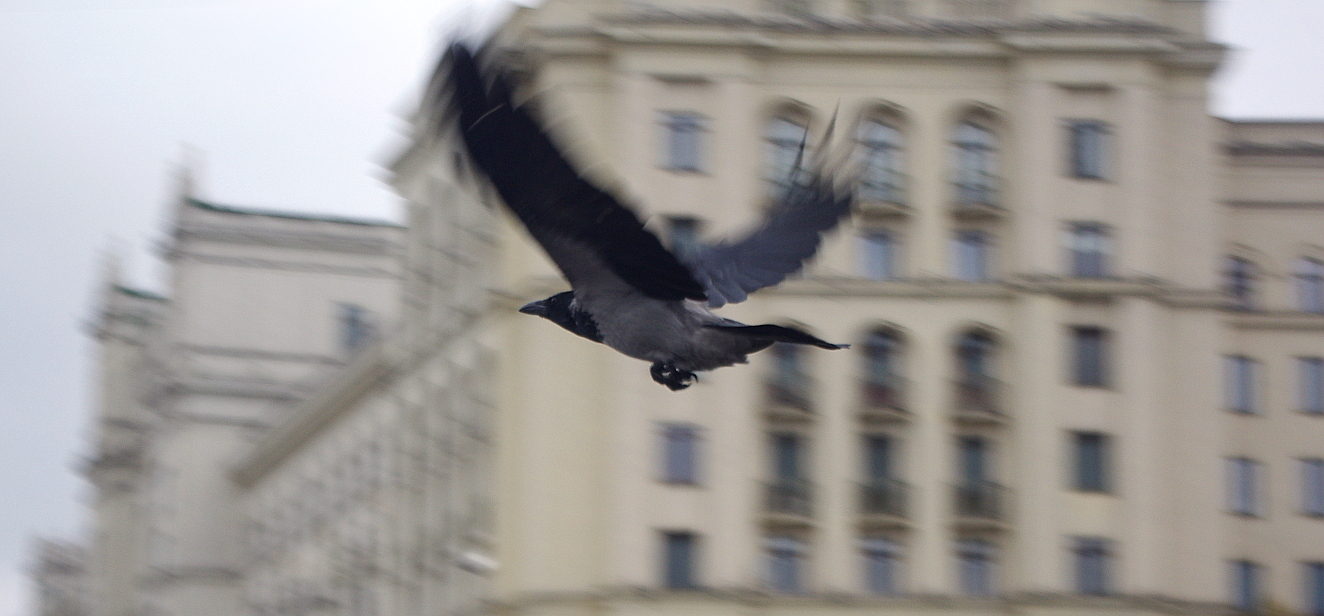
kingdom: Animalia
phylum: Chordata
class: Aves
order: Passeriformes
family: Corvidae
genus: Corvus
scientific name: Corvus cornix
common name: Hooded crow
